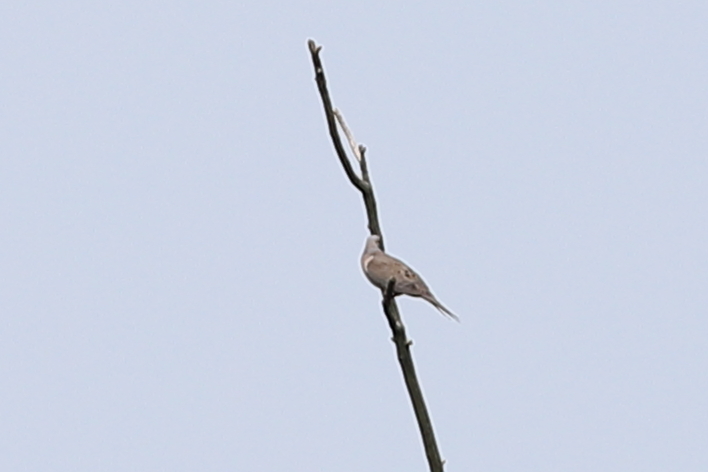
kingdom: Animalia
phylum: Chordata
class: Aves
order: Columbiformes
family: Columbidae
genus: Zenaida
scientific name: Zenaida macroura
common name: Mourning dove
